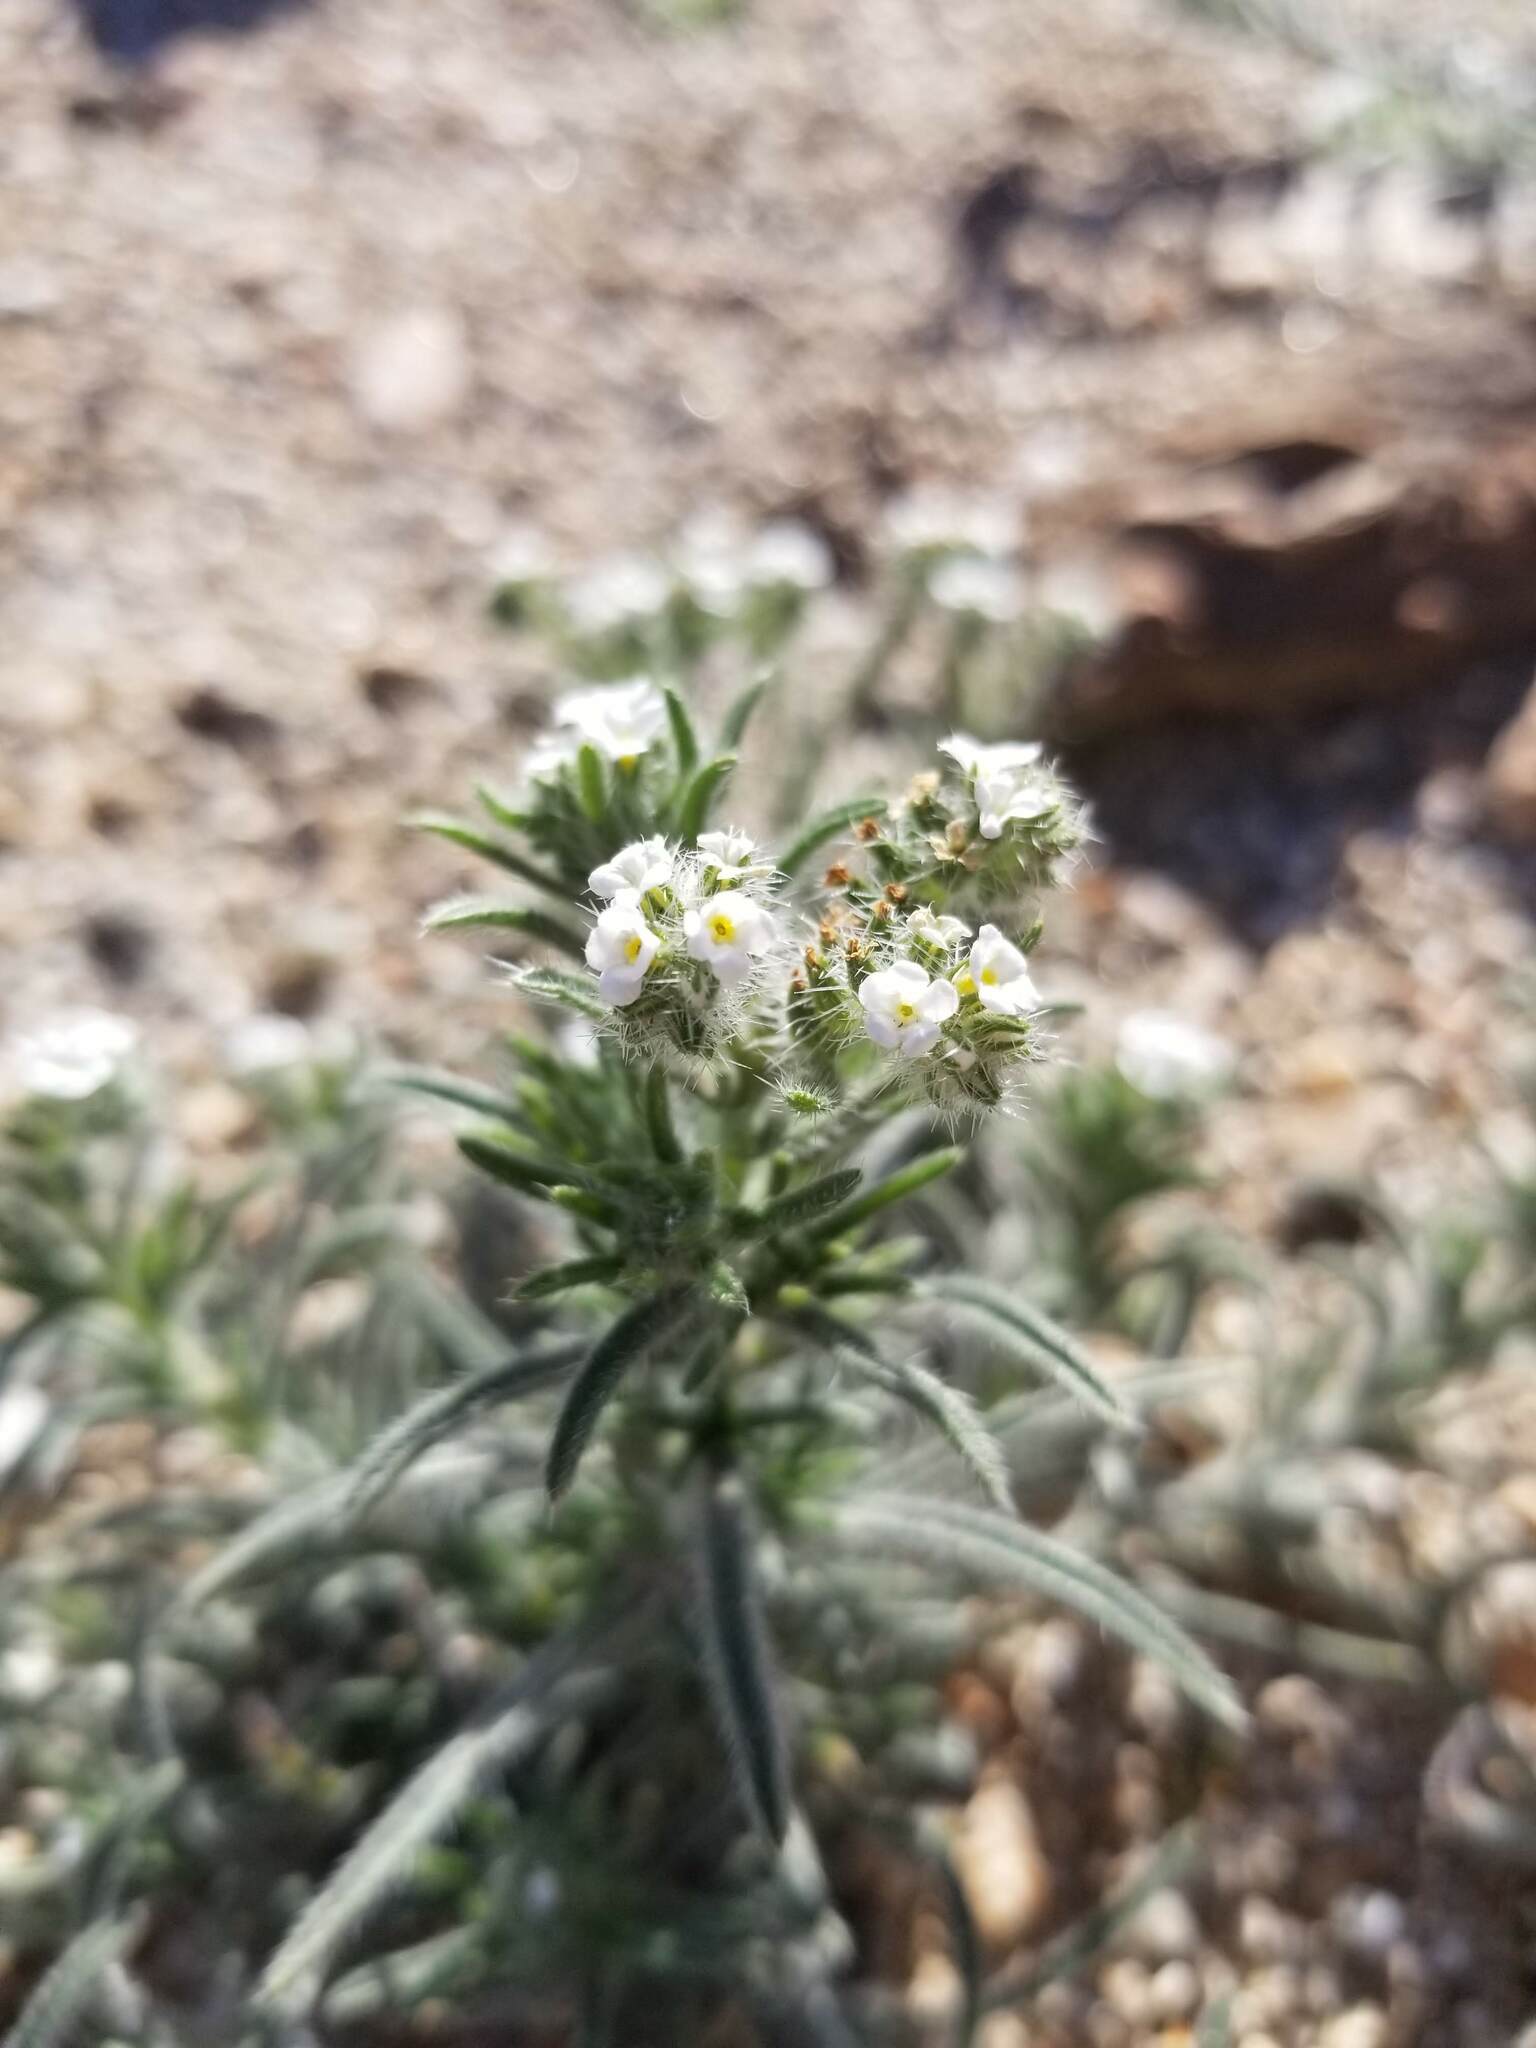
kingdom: Plantae
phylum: Tracheophyta
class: Magnoliopsida
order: Boraginales
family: Boraginaceae
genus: Johnstonella
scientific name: Johnstonella angustifolia
